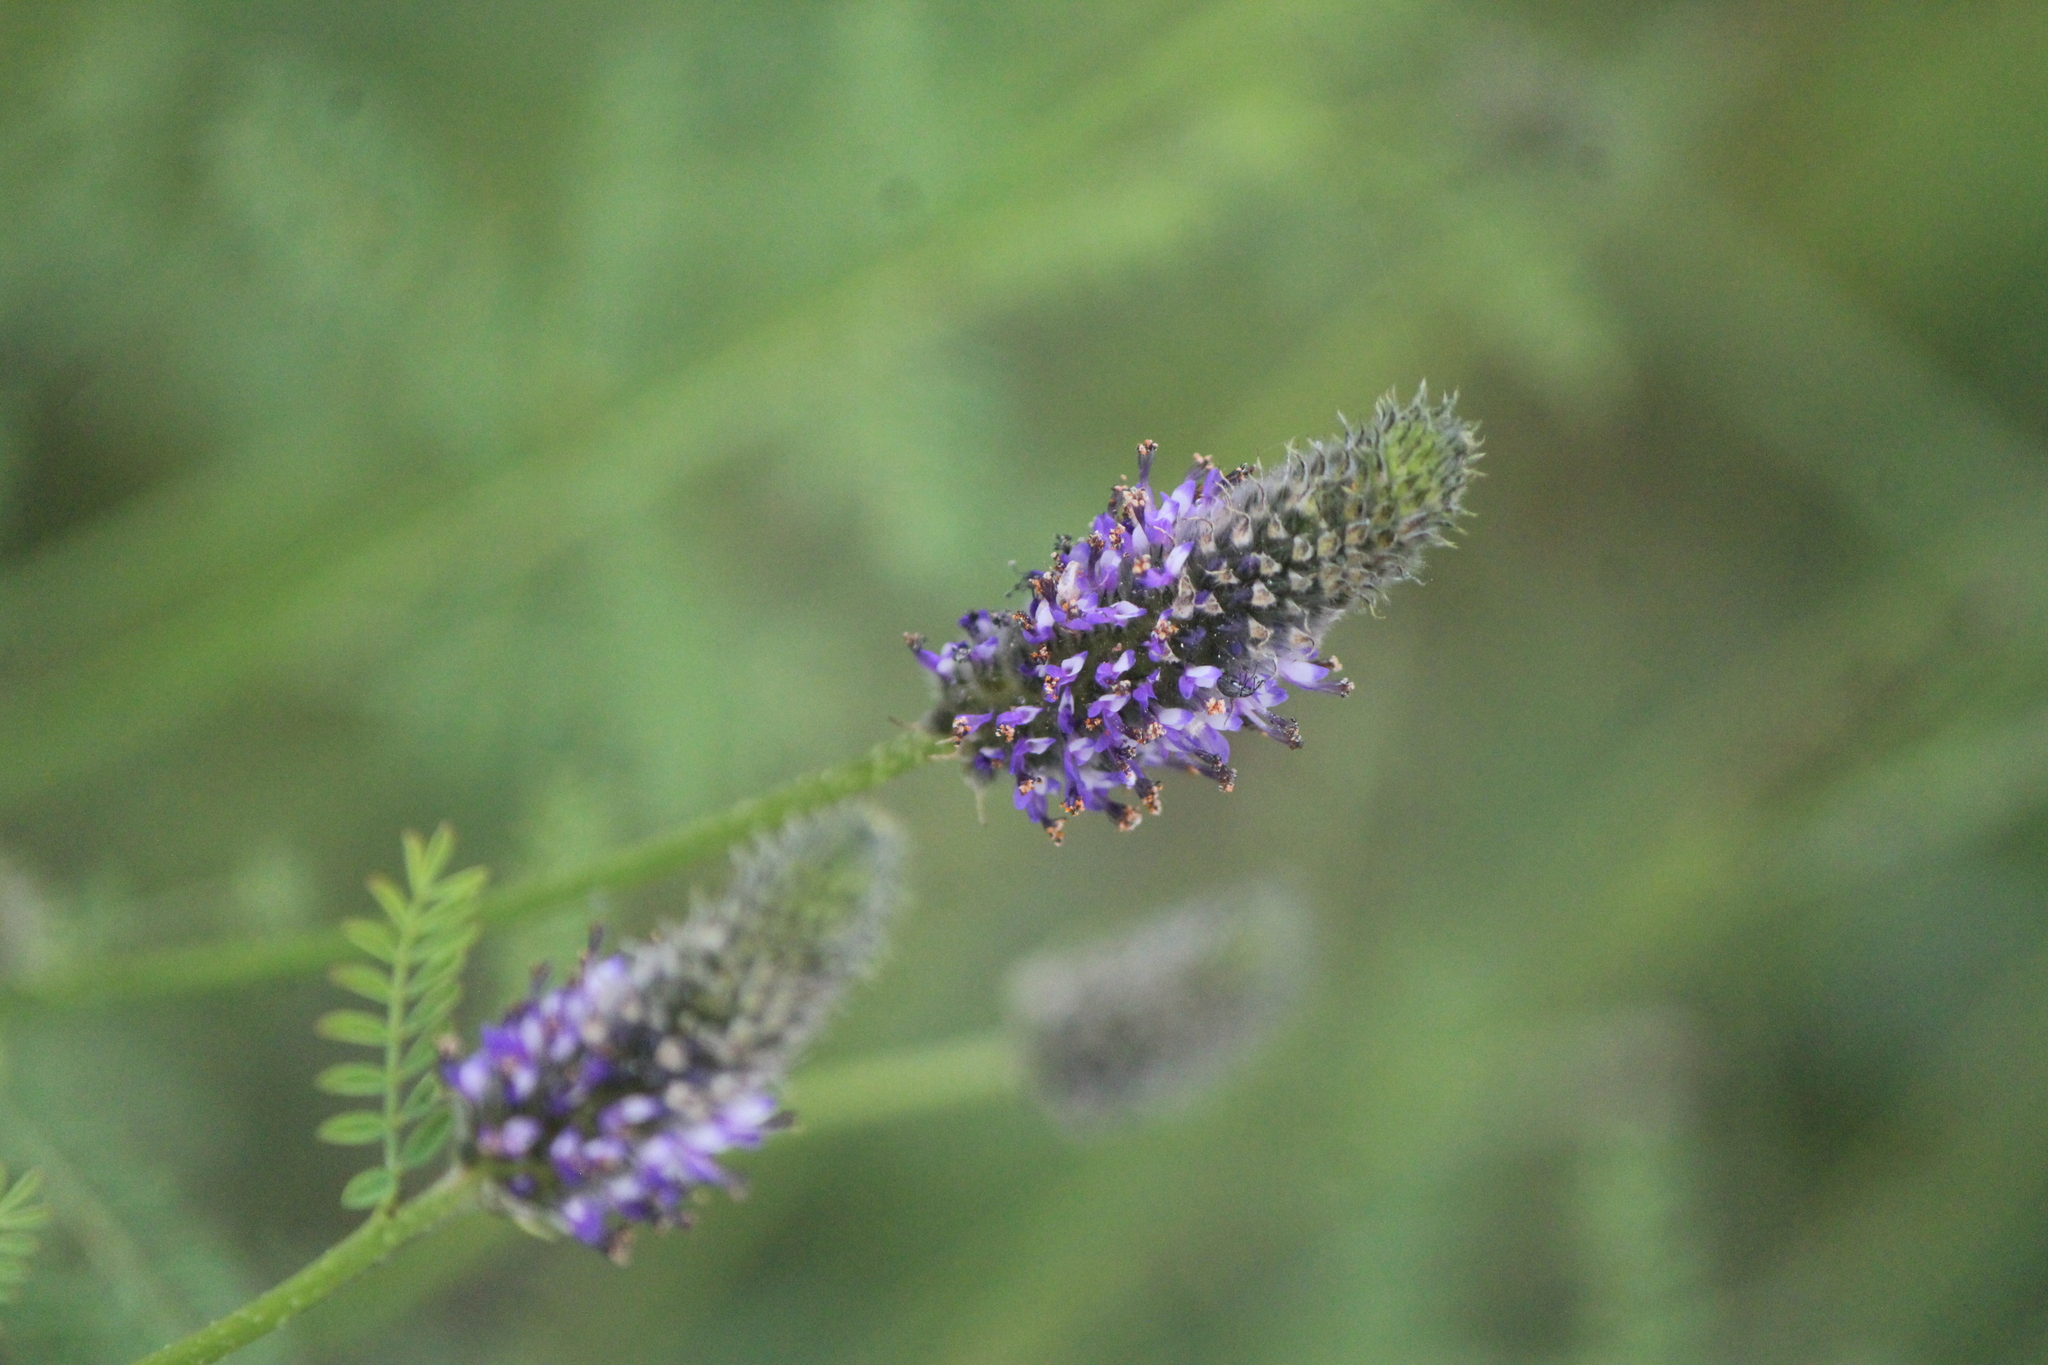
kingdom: Plantae
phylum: Tracheophyta
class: Magnoliopsida
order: Fabales
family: Fabaceae
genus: Dalea
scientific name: Dalea leporina
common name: Foxtail dalea
